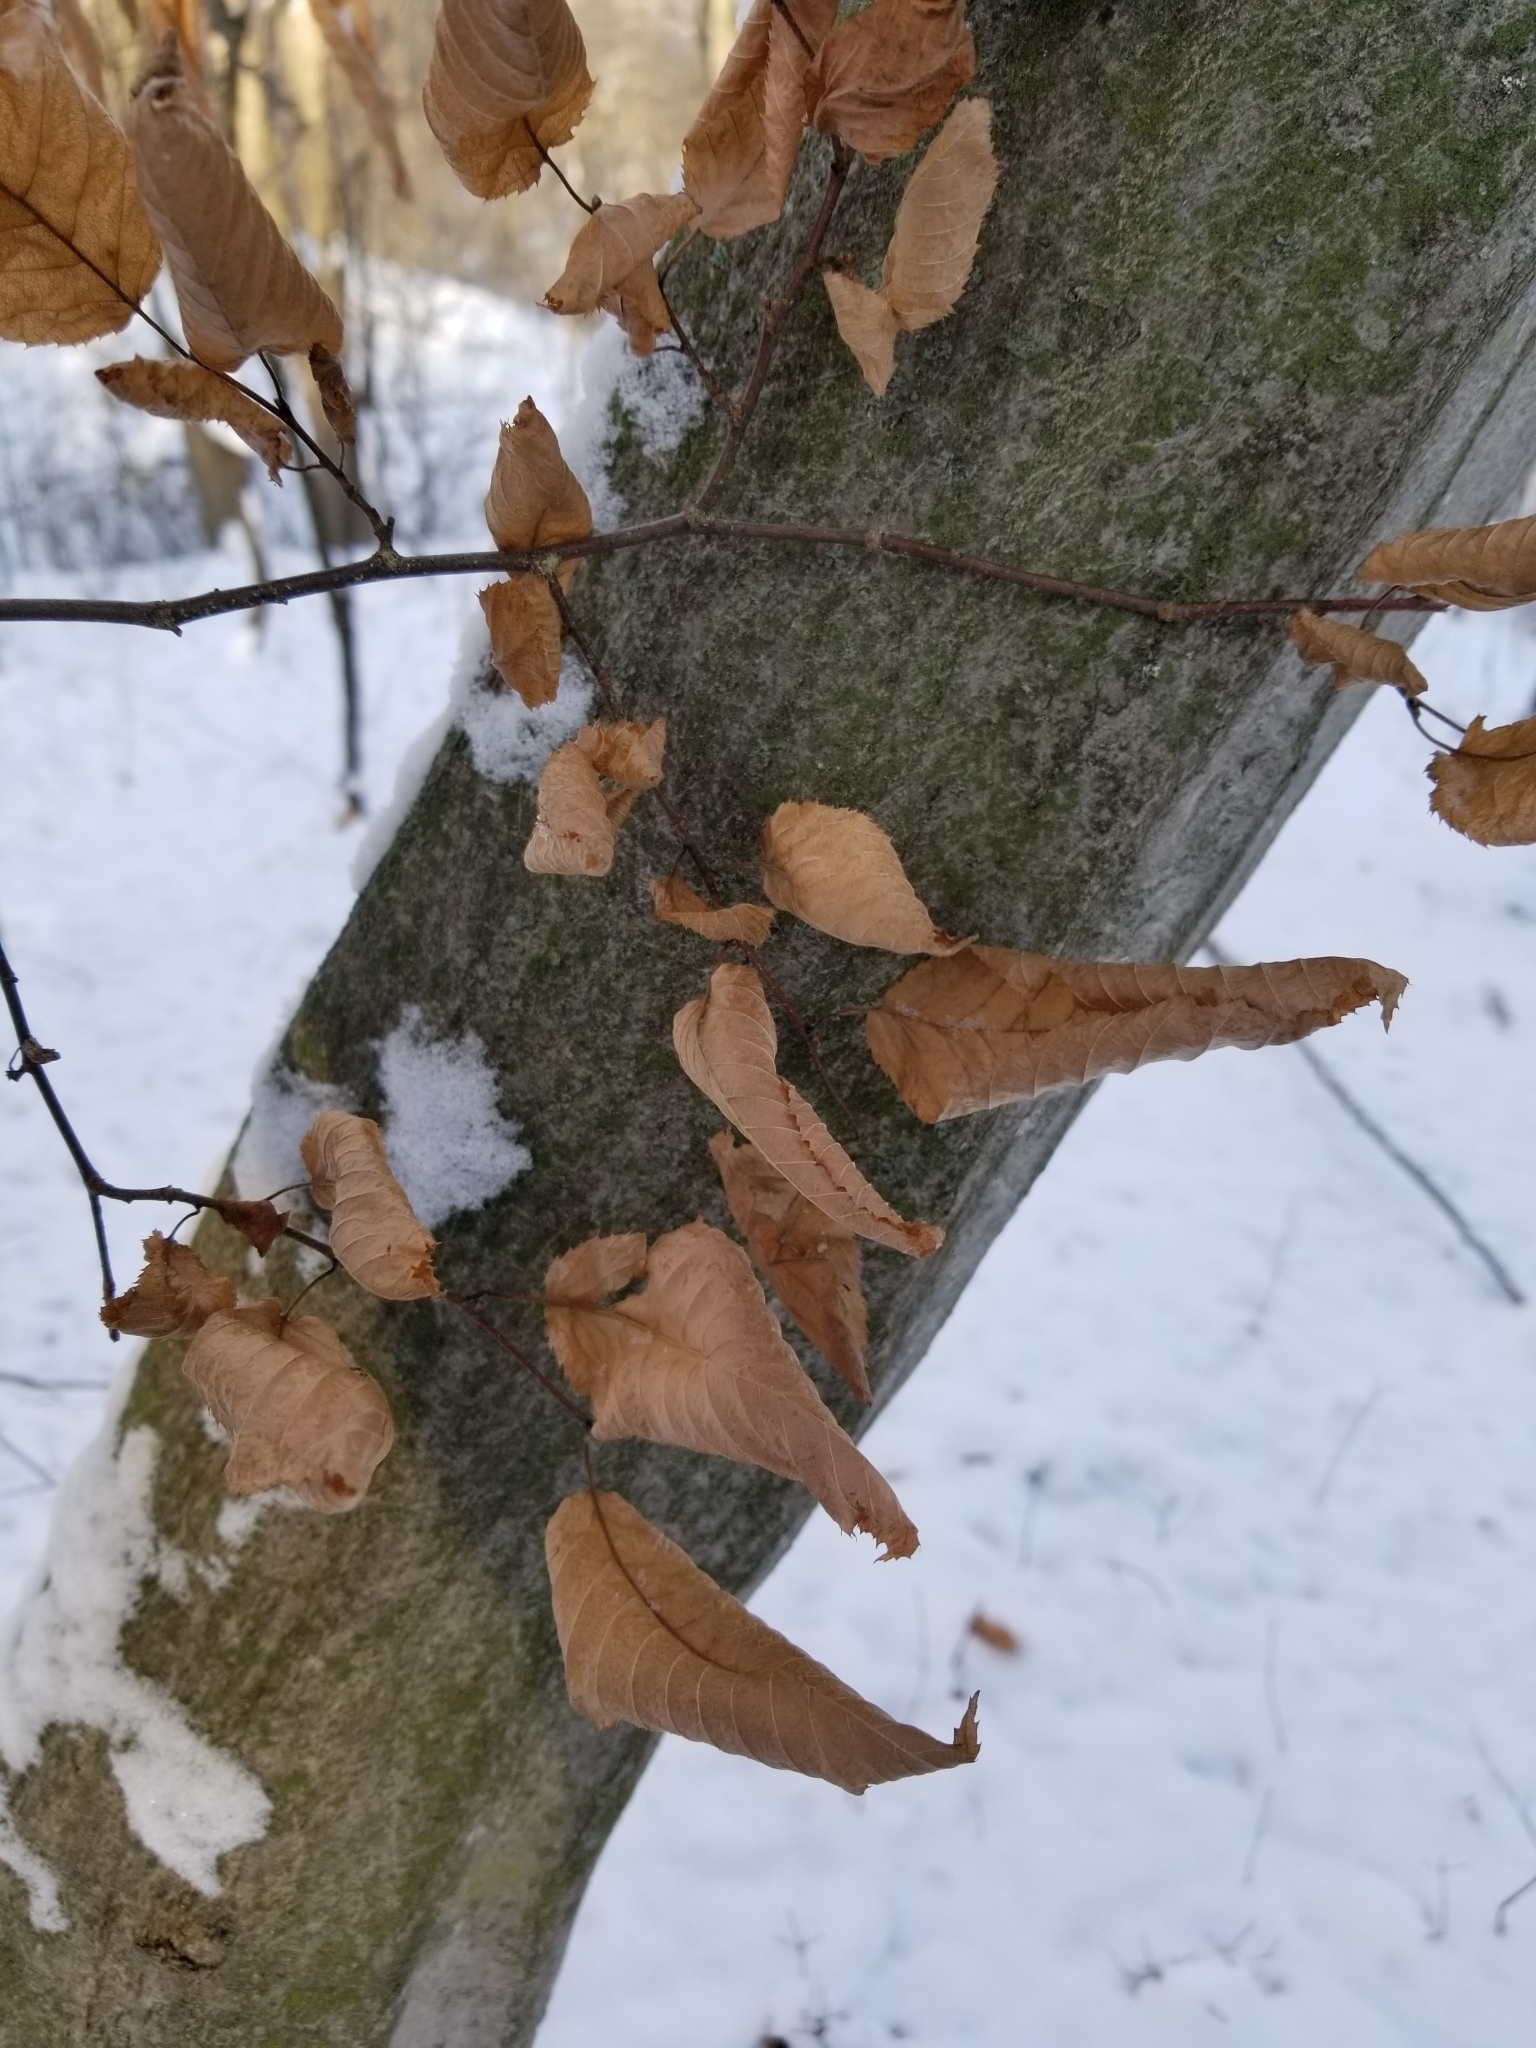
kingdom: Plantae
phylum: Tracheophyta
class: Magnoliopsida
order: Fagales
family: Betulaceae
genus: Carpinus
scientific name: Carpinus caroliniana
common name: American hornbeam
